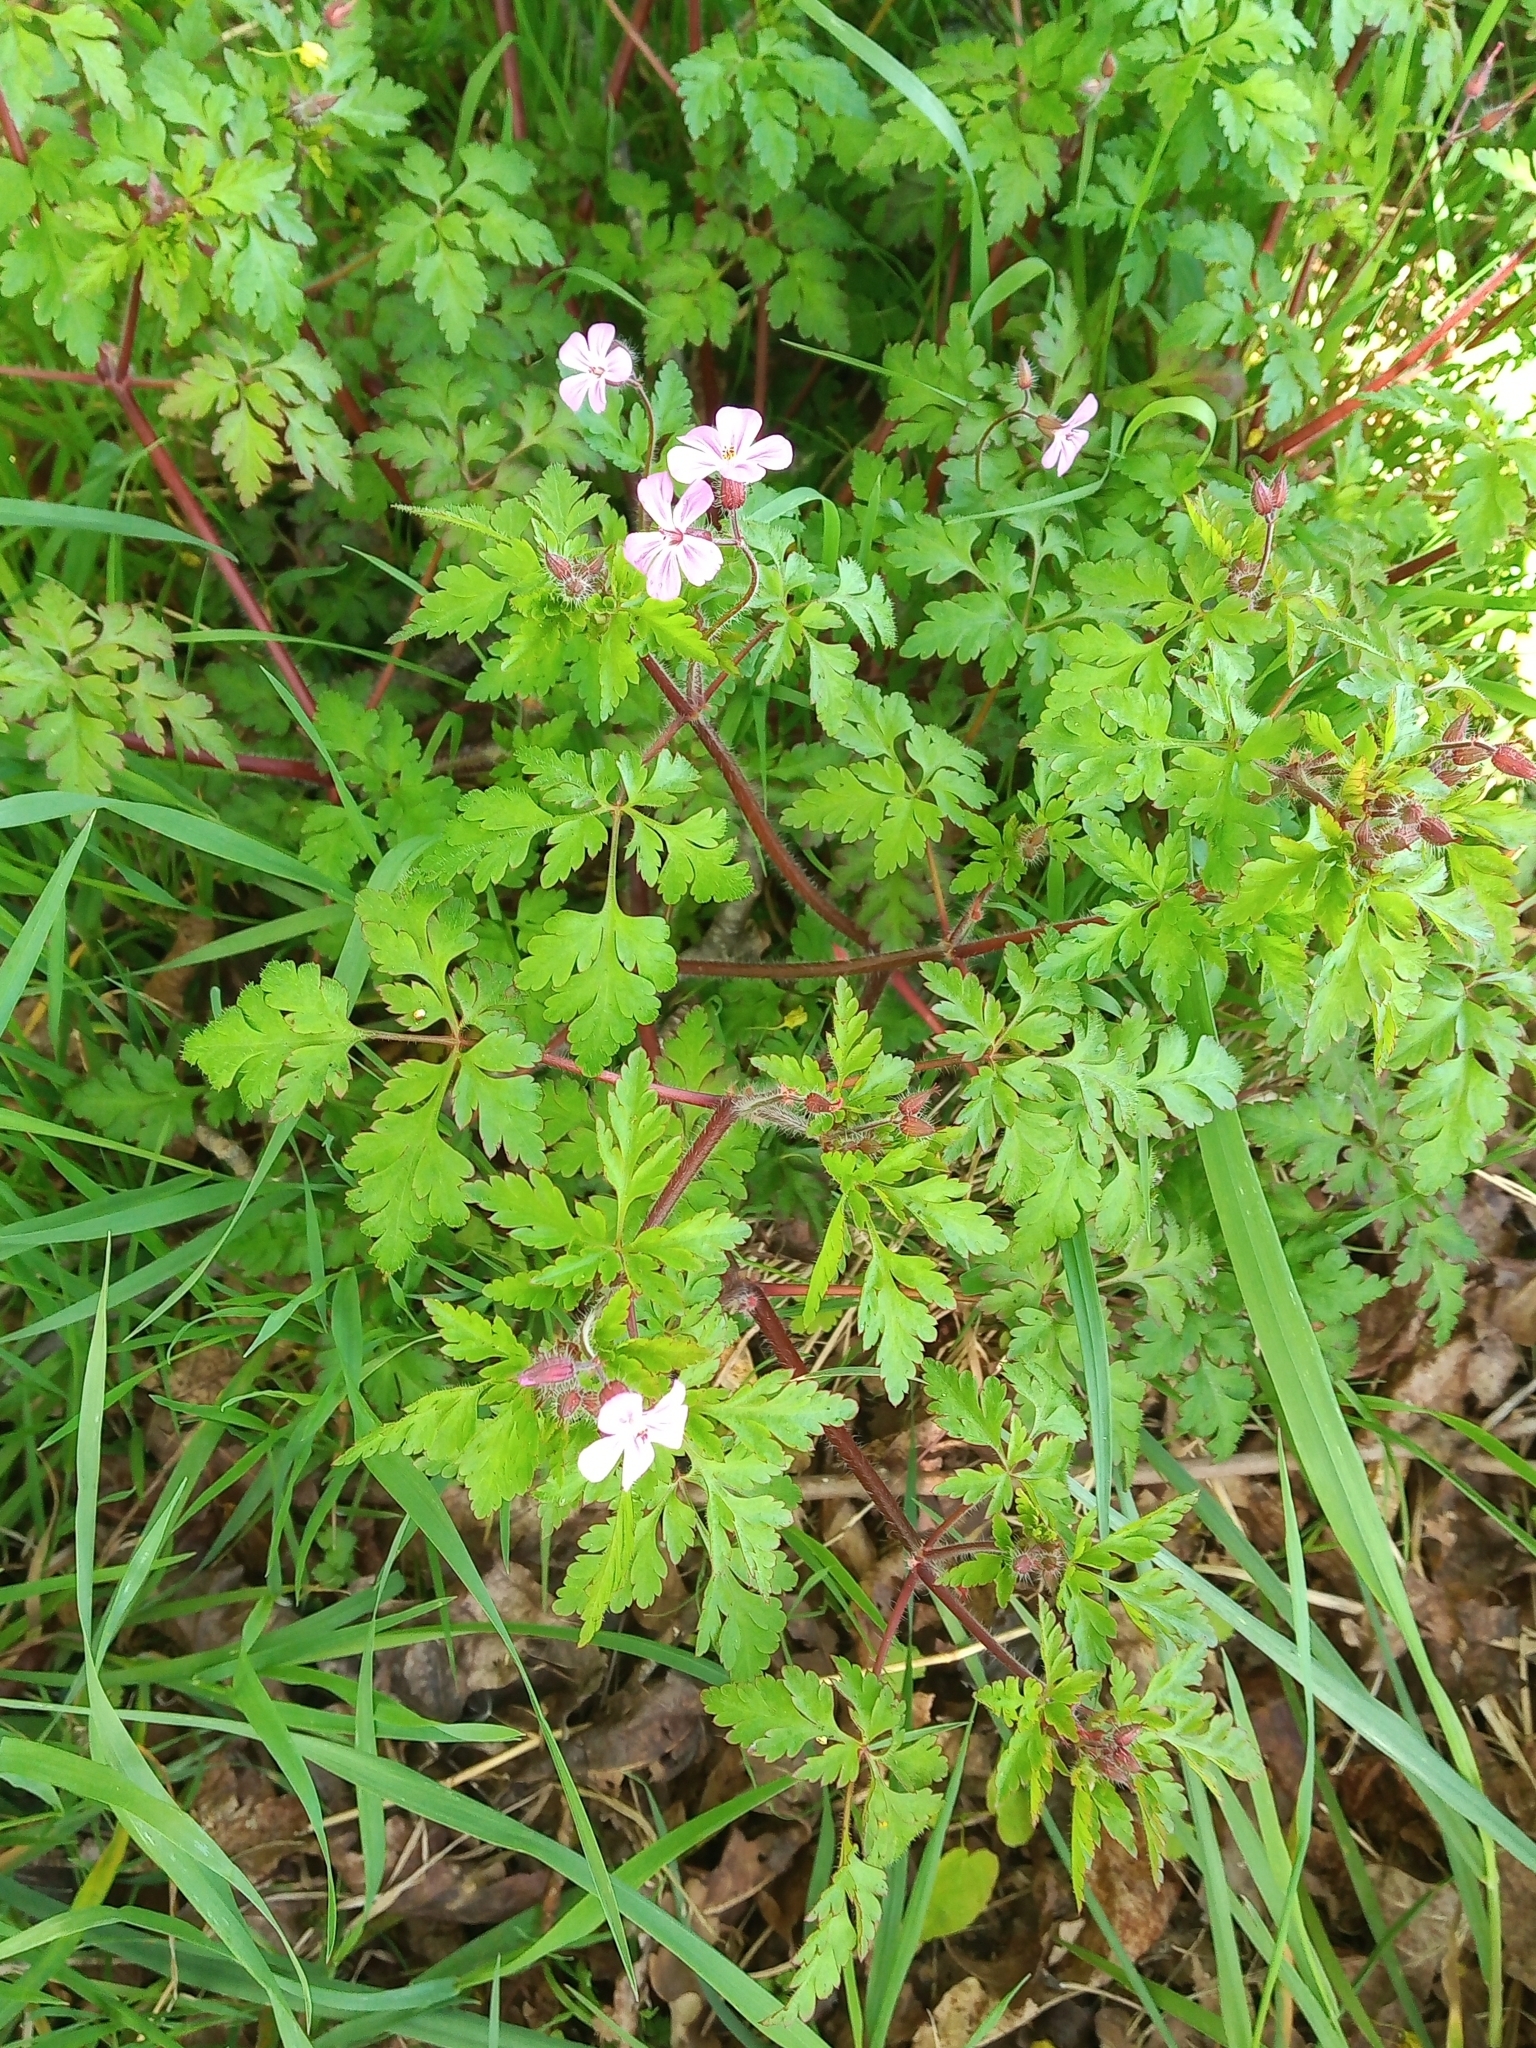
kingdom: Plantae
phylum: Tracheophyta
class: Magnoliopsida
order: Geraniales
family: Geraniaceae
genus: Geranium
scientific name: Geranium robertianum
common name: Herb-robert
